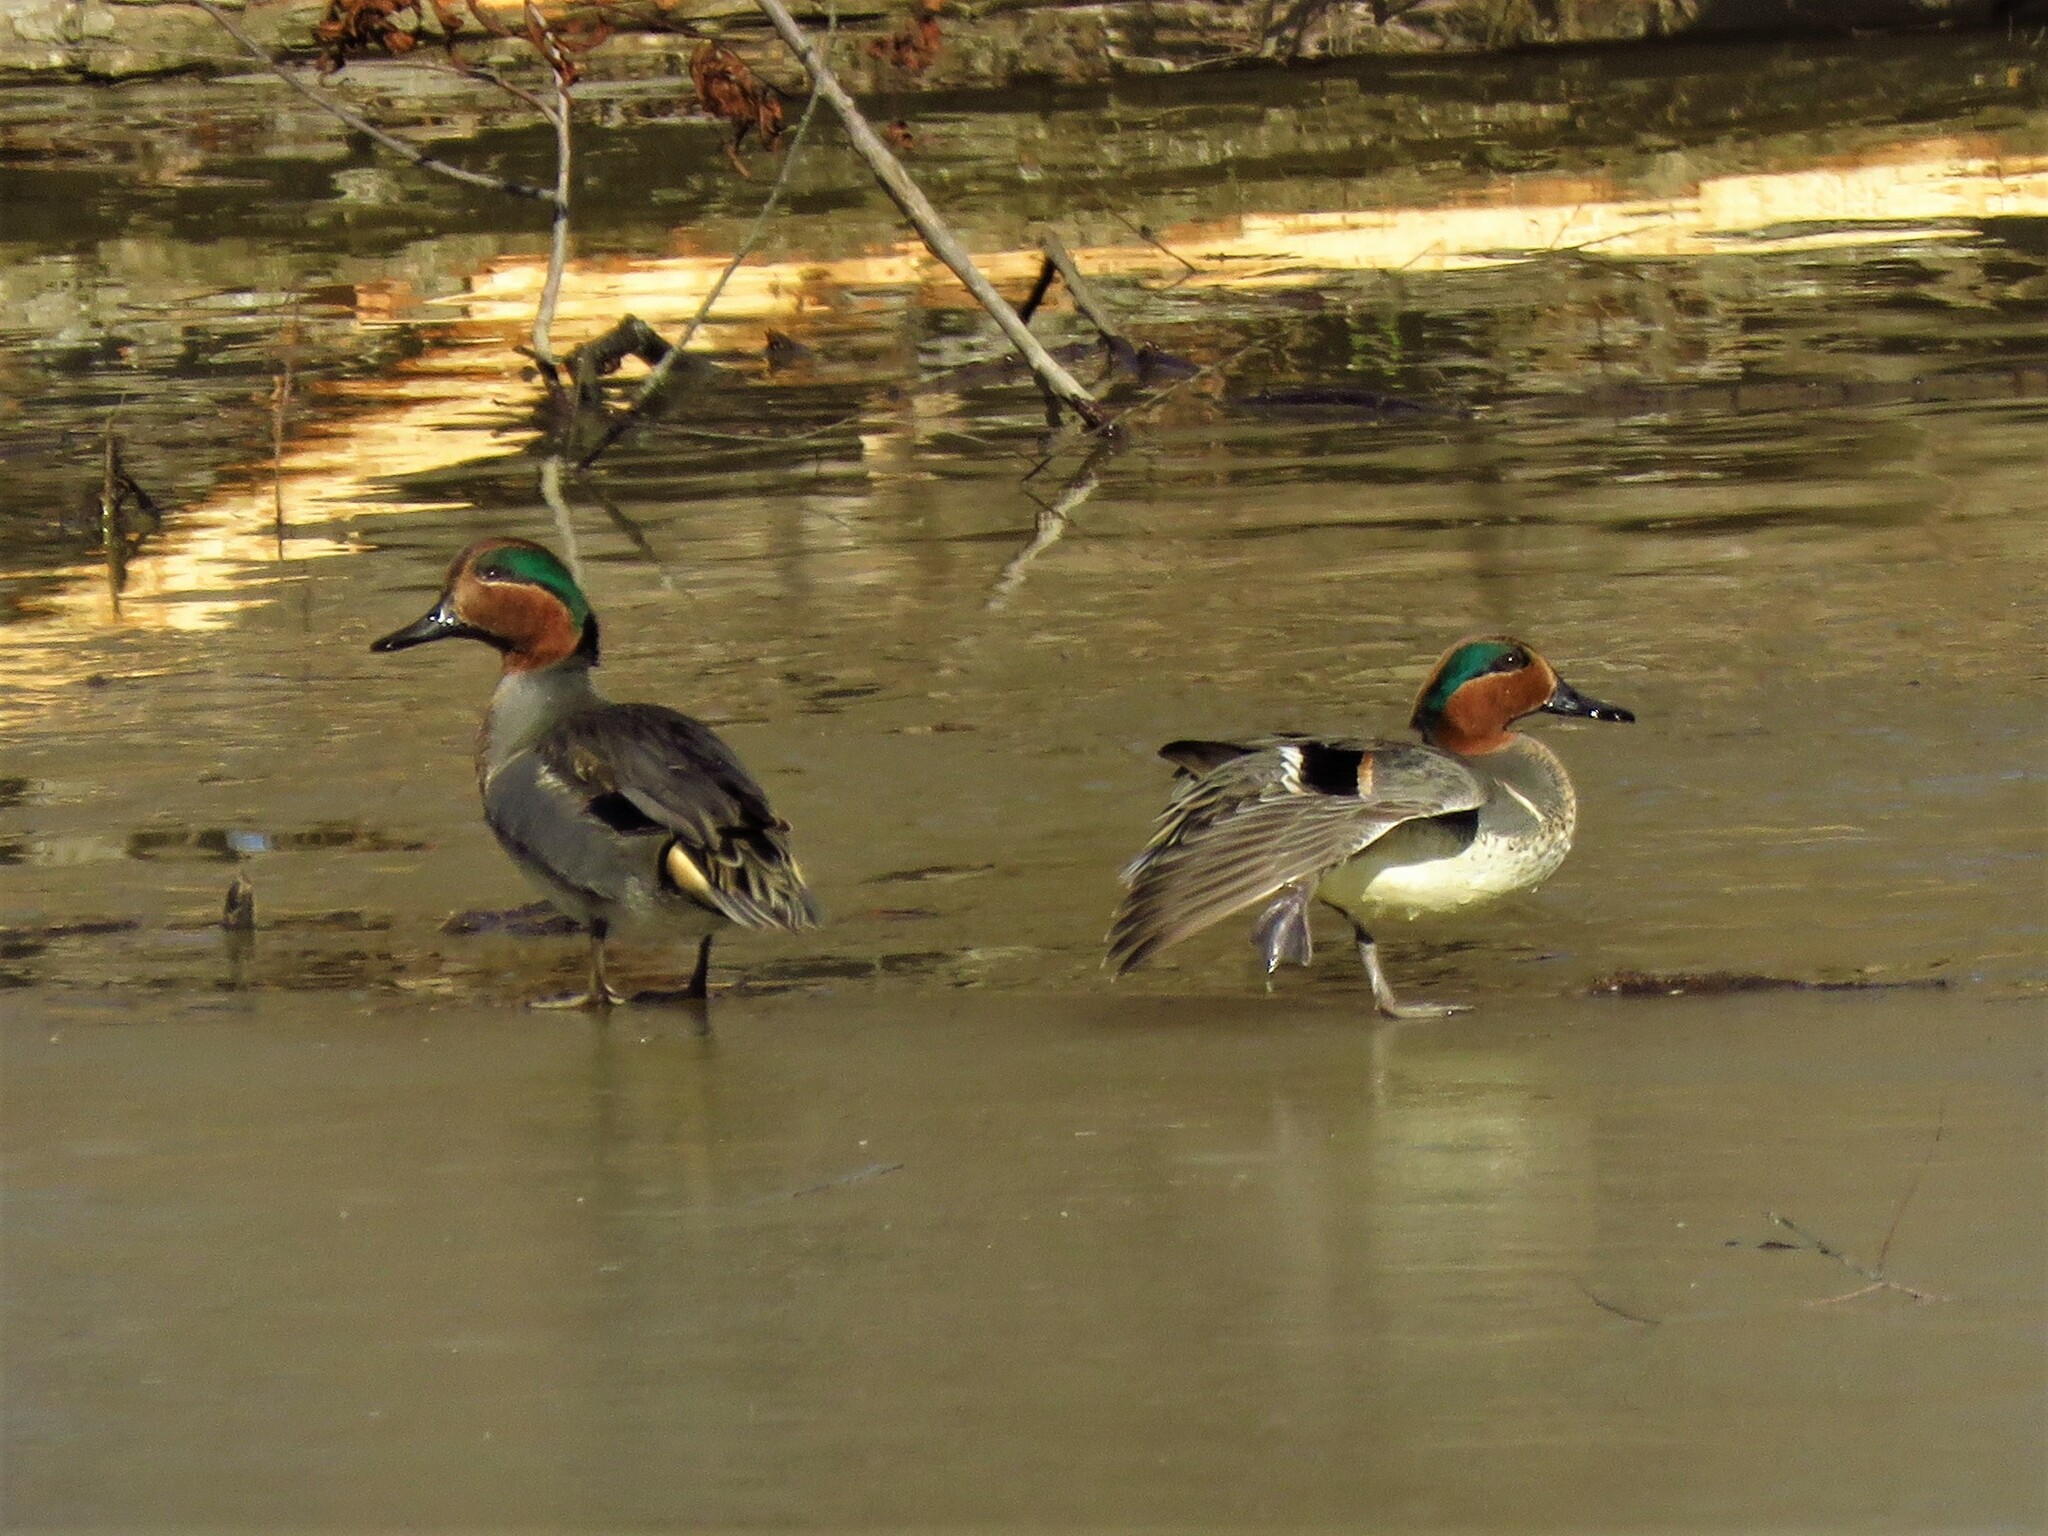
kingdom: Animalia
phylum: Chordata
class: Aves
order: Anseriformes
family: Anatidae
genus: Anas
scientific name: Anas crecca
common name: Eurasian teal
